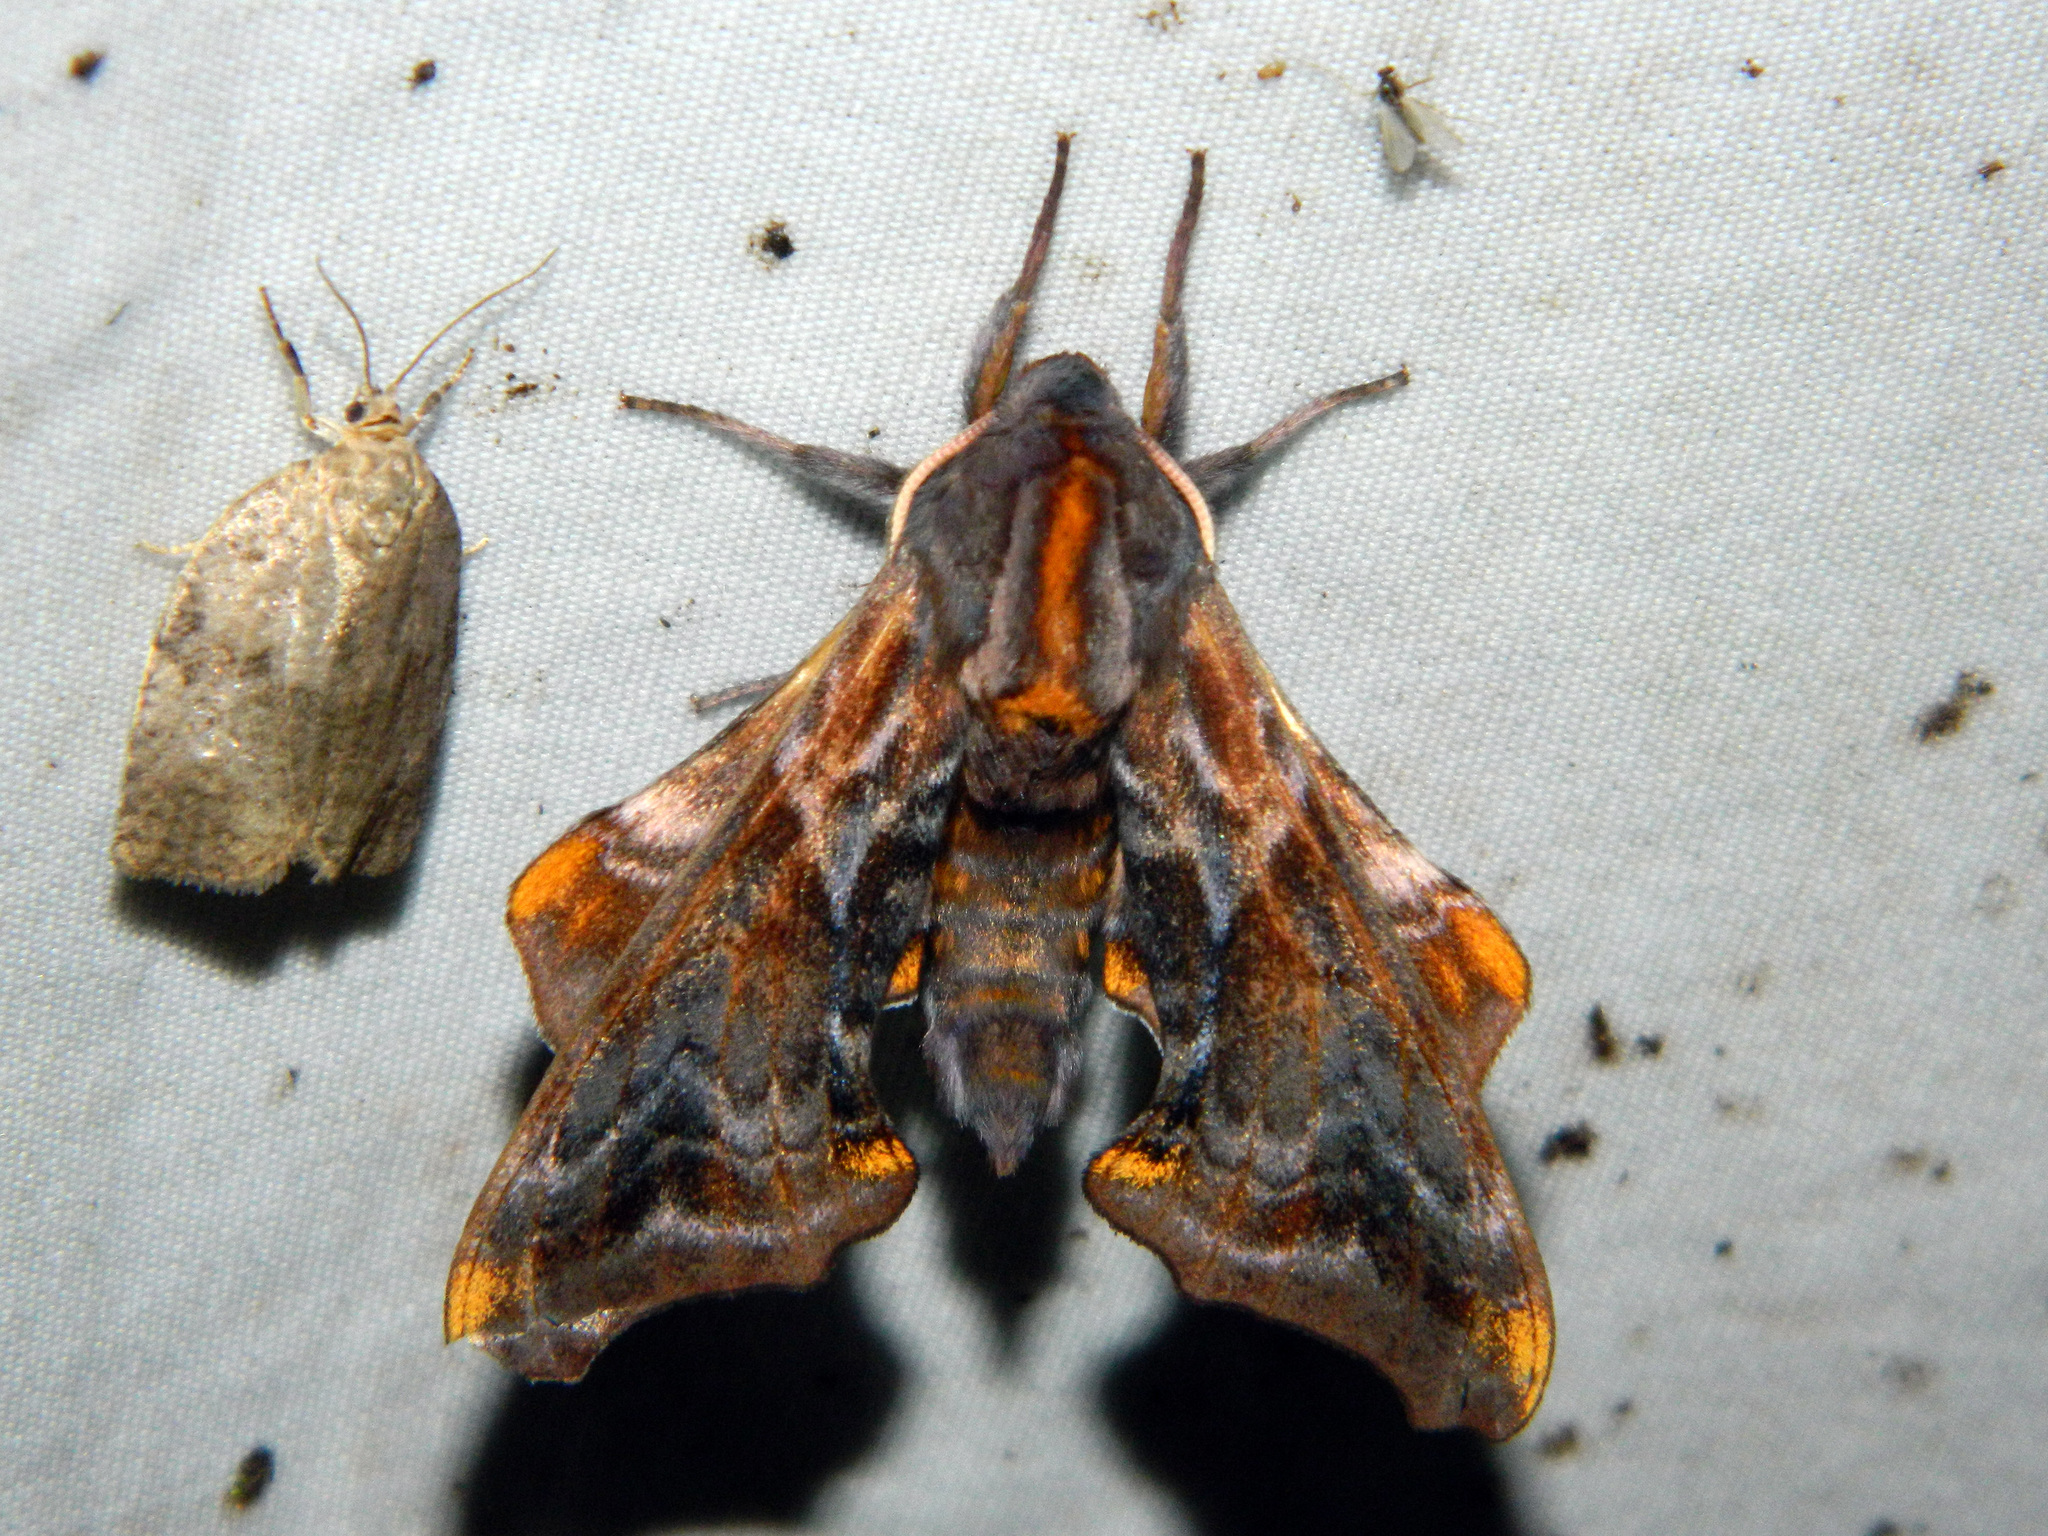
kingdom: Animalia
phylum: Arthropoda
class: Insecta
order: Lepidoptera
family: Sphingidae
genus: Paonias
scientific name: Paonias myops
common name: Small-eyed sphinx
